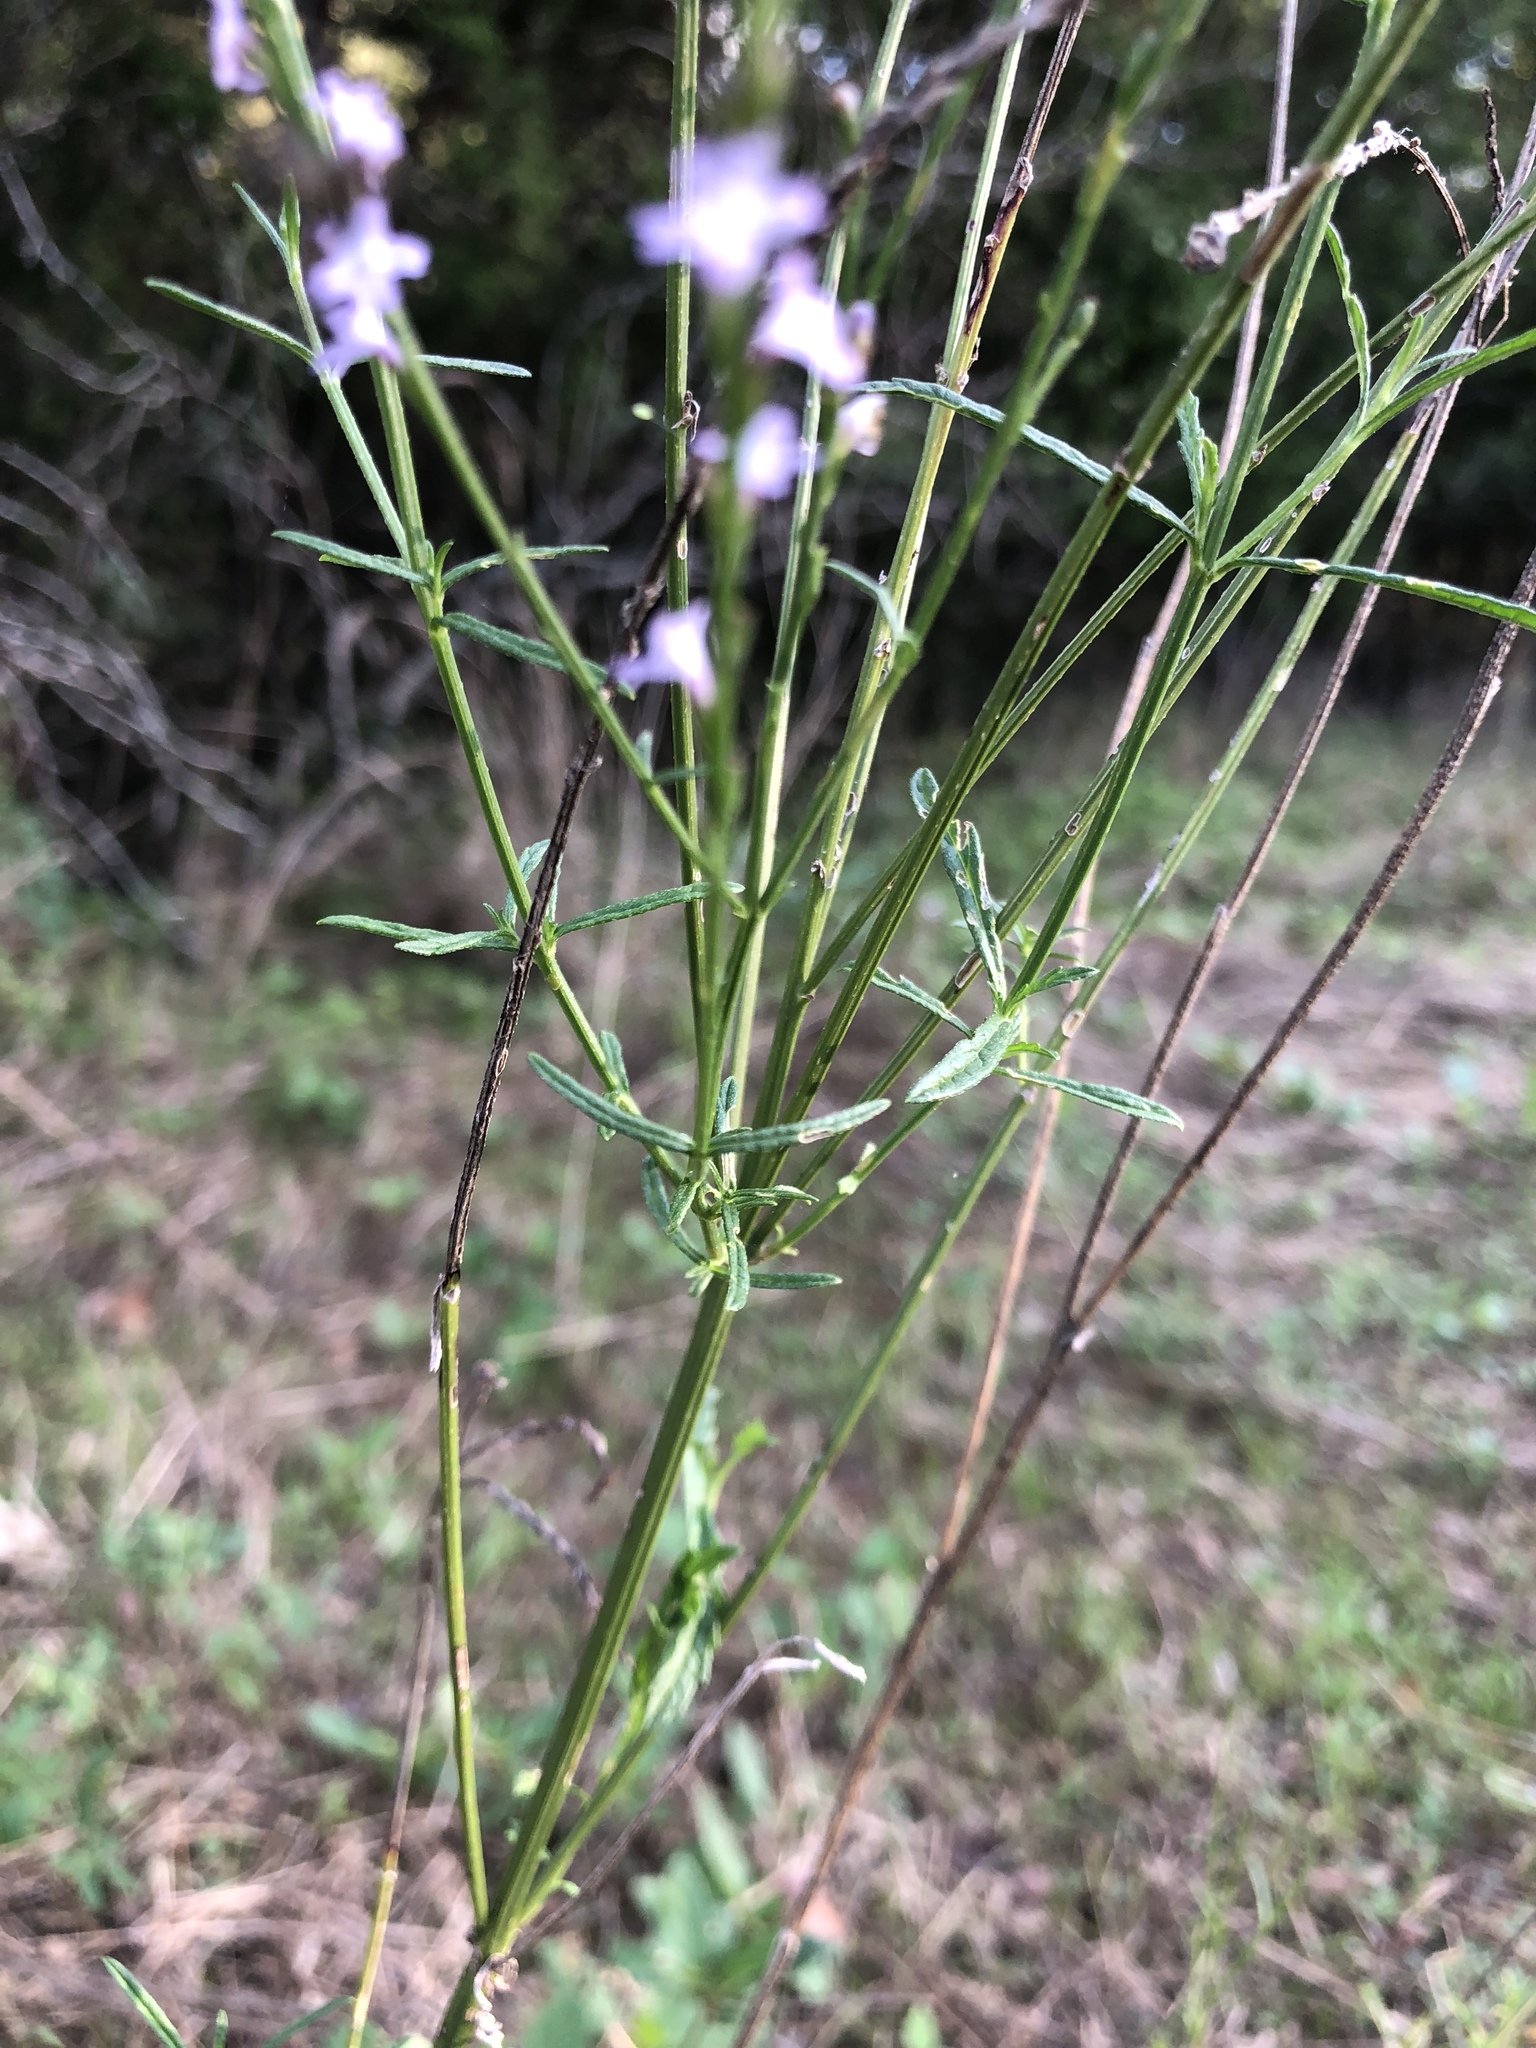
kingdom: Plantae
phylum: Tracheophyta
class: Magnoliopsida
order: Lamiales
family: Verbenaceae
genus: Verbena
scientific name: Verbena halei
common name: Texas vervain
